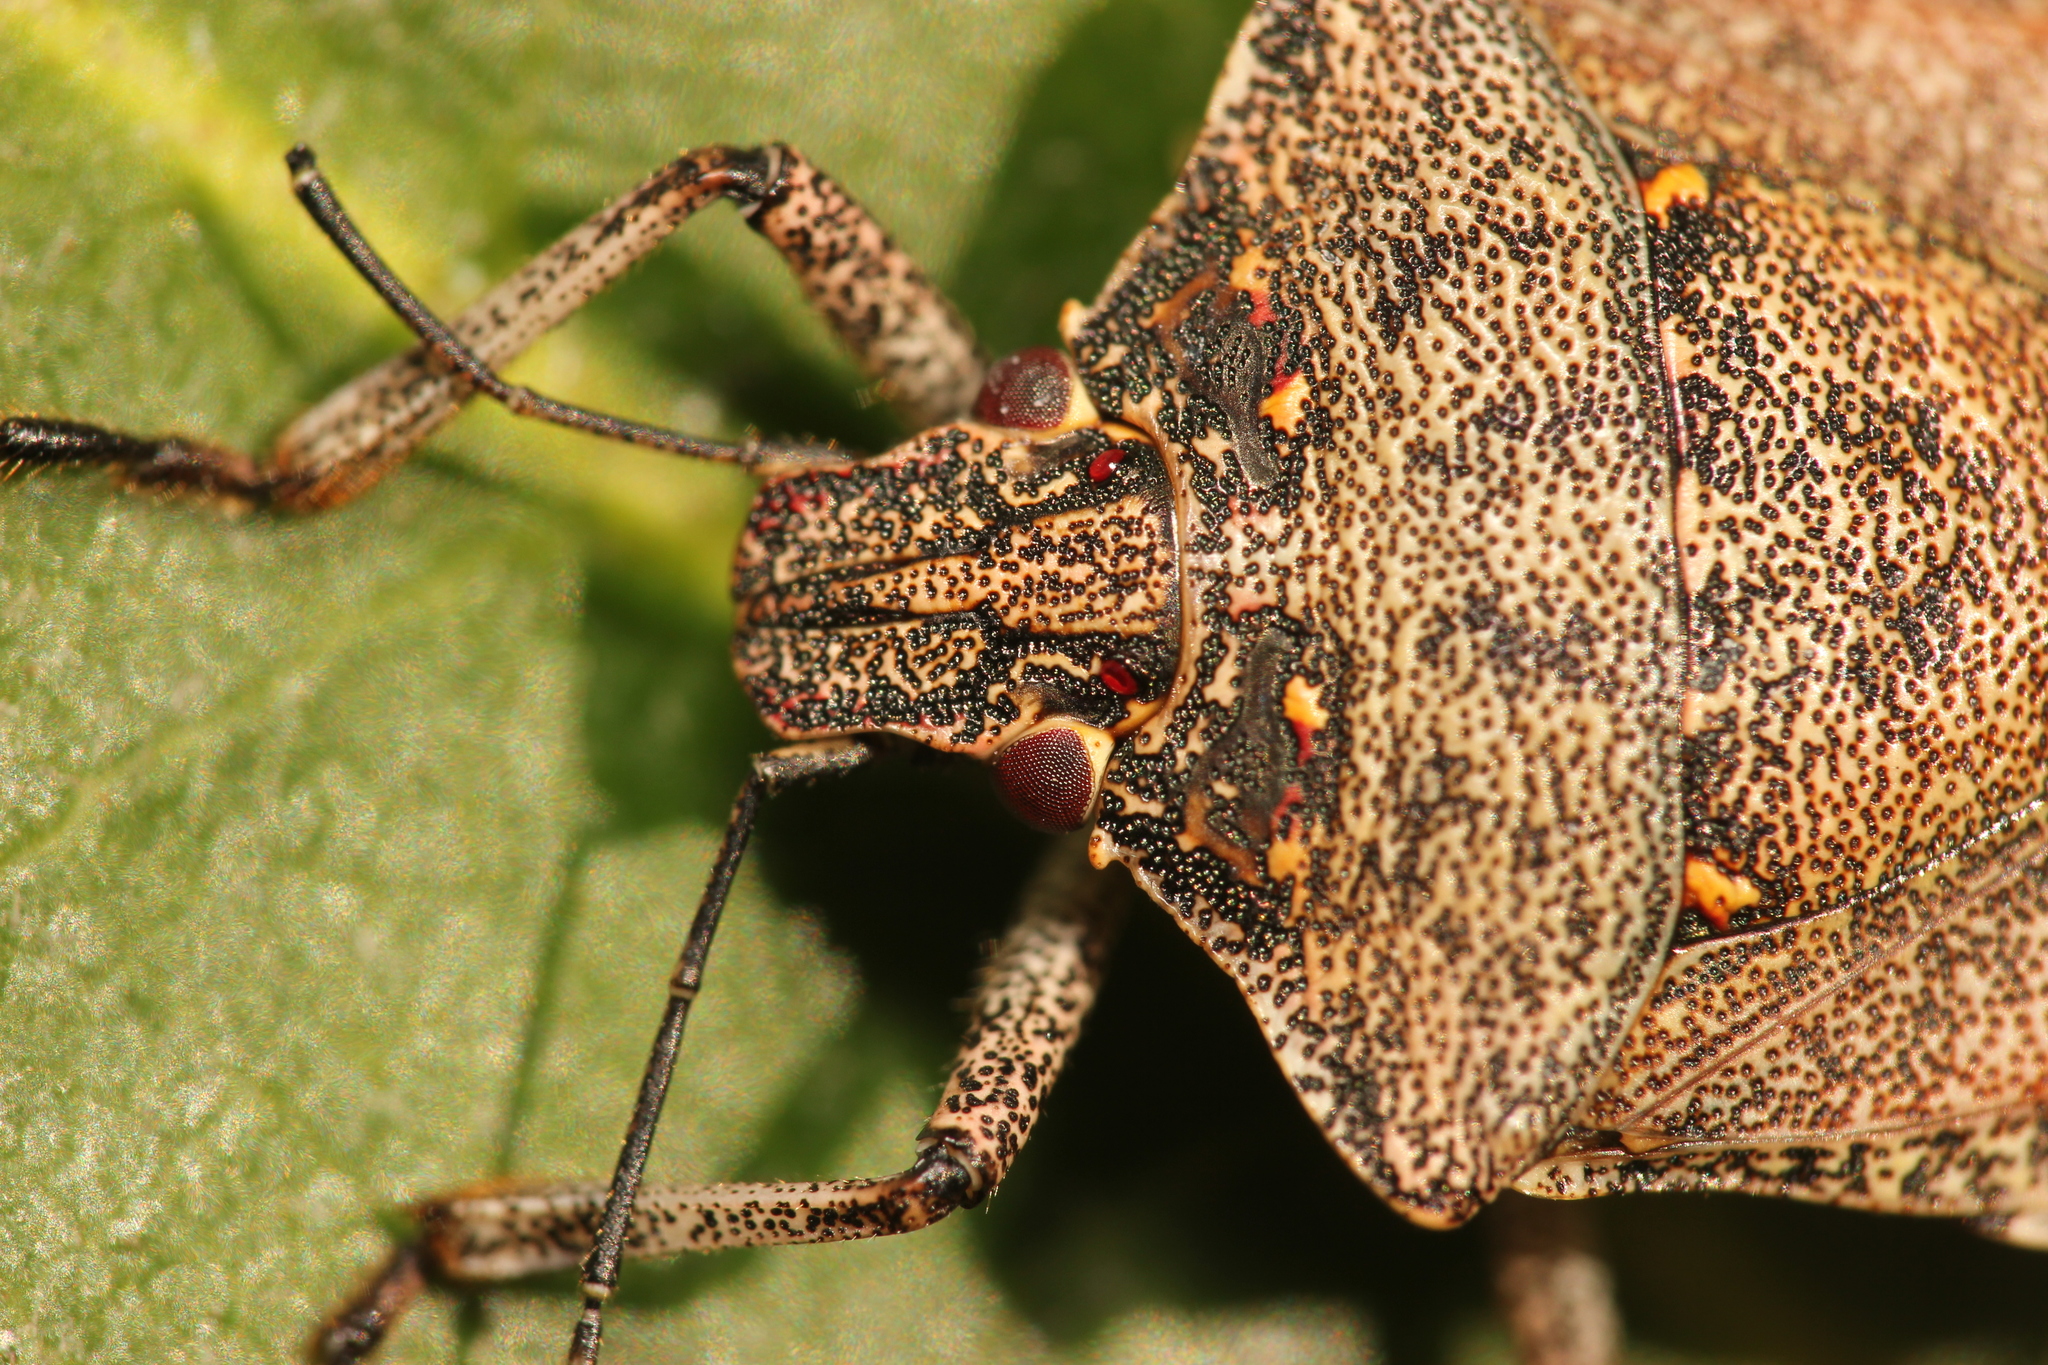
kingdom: Animalia
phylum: Arthropoda
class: Insecta
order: Hemiptera
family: Pentatomidae
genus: Halyomorpha
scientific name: Halyomorpha halys
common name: Brown marmorated stink bug
